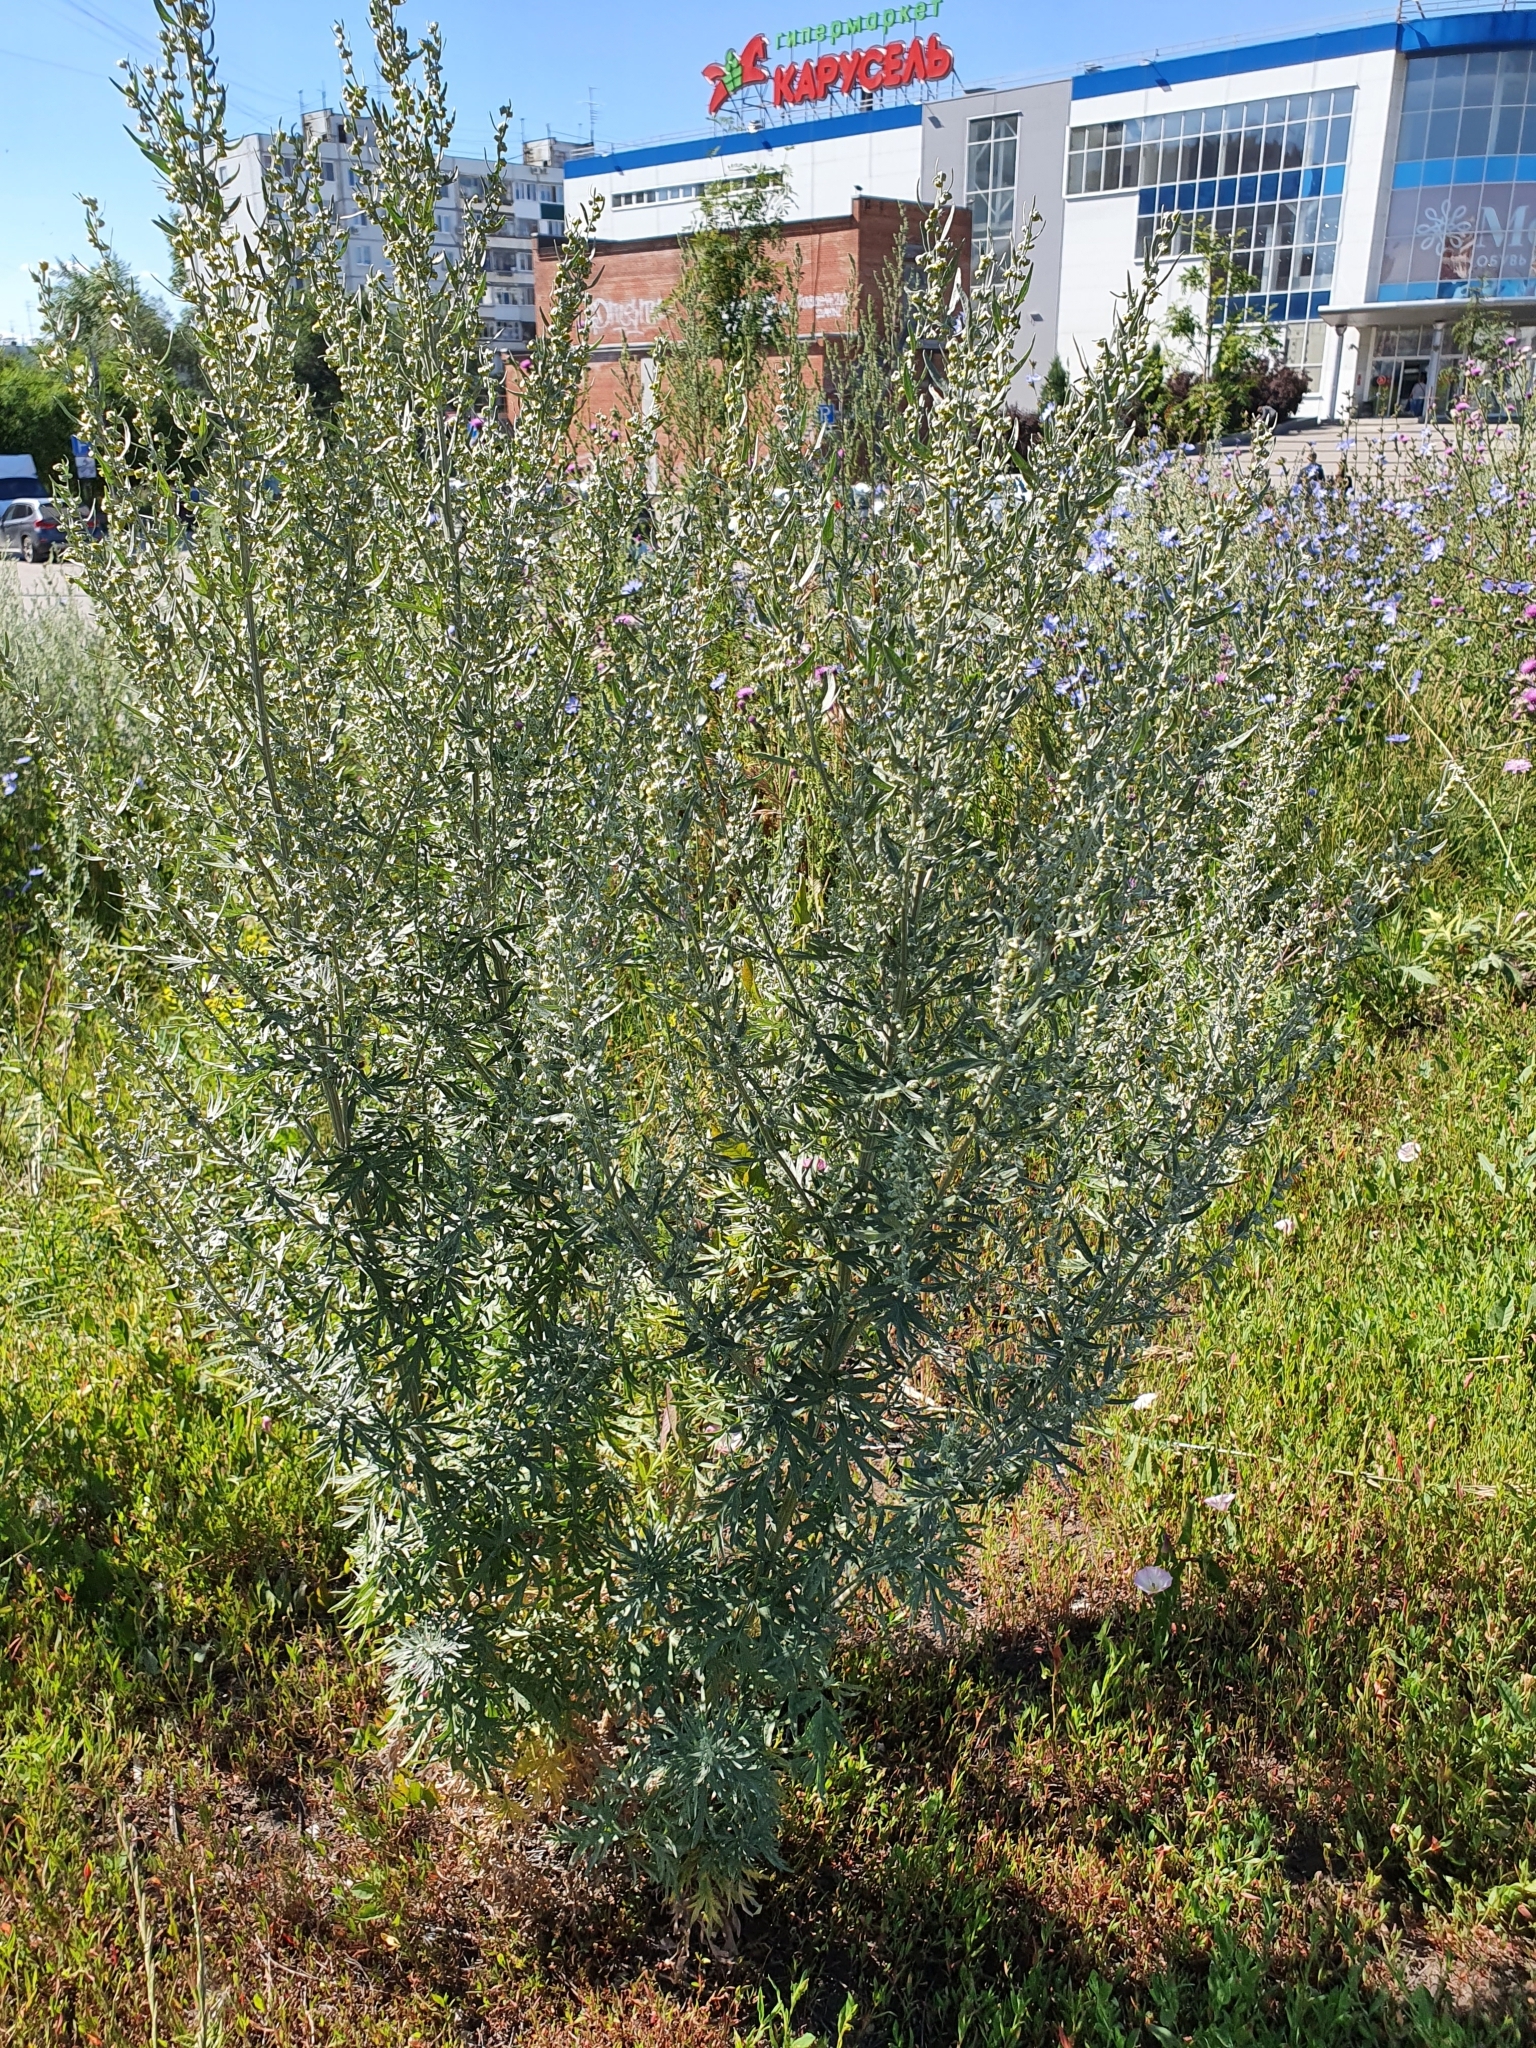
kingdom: Plantae
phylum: Tracheophyta
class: Magnoliopsida
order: Asterales
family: Asteraceae
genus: Artemisia
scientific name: Artemisia absinthium
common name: Wormwood
